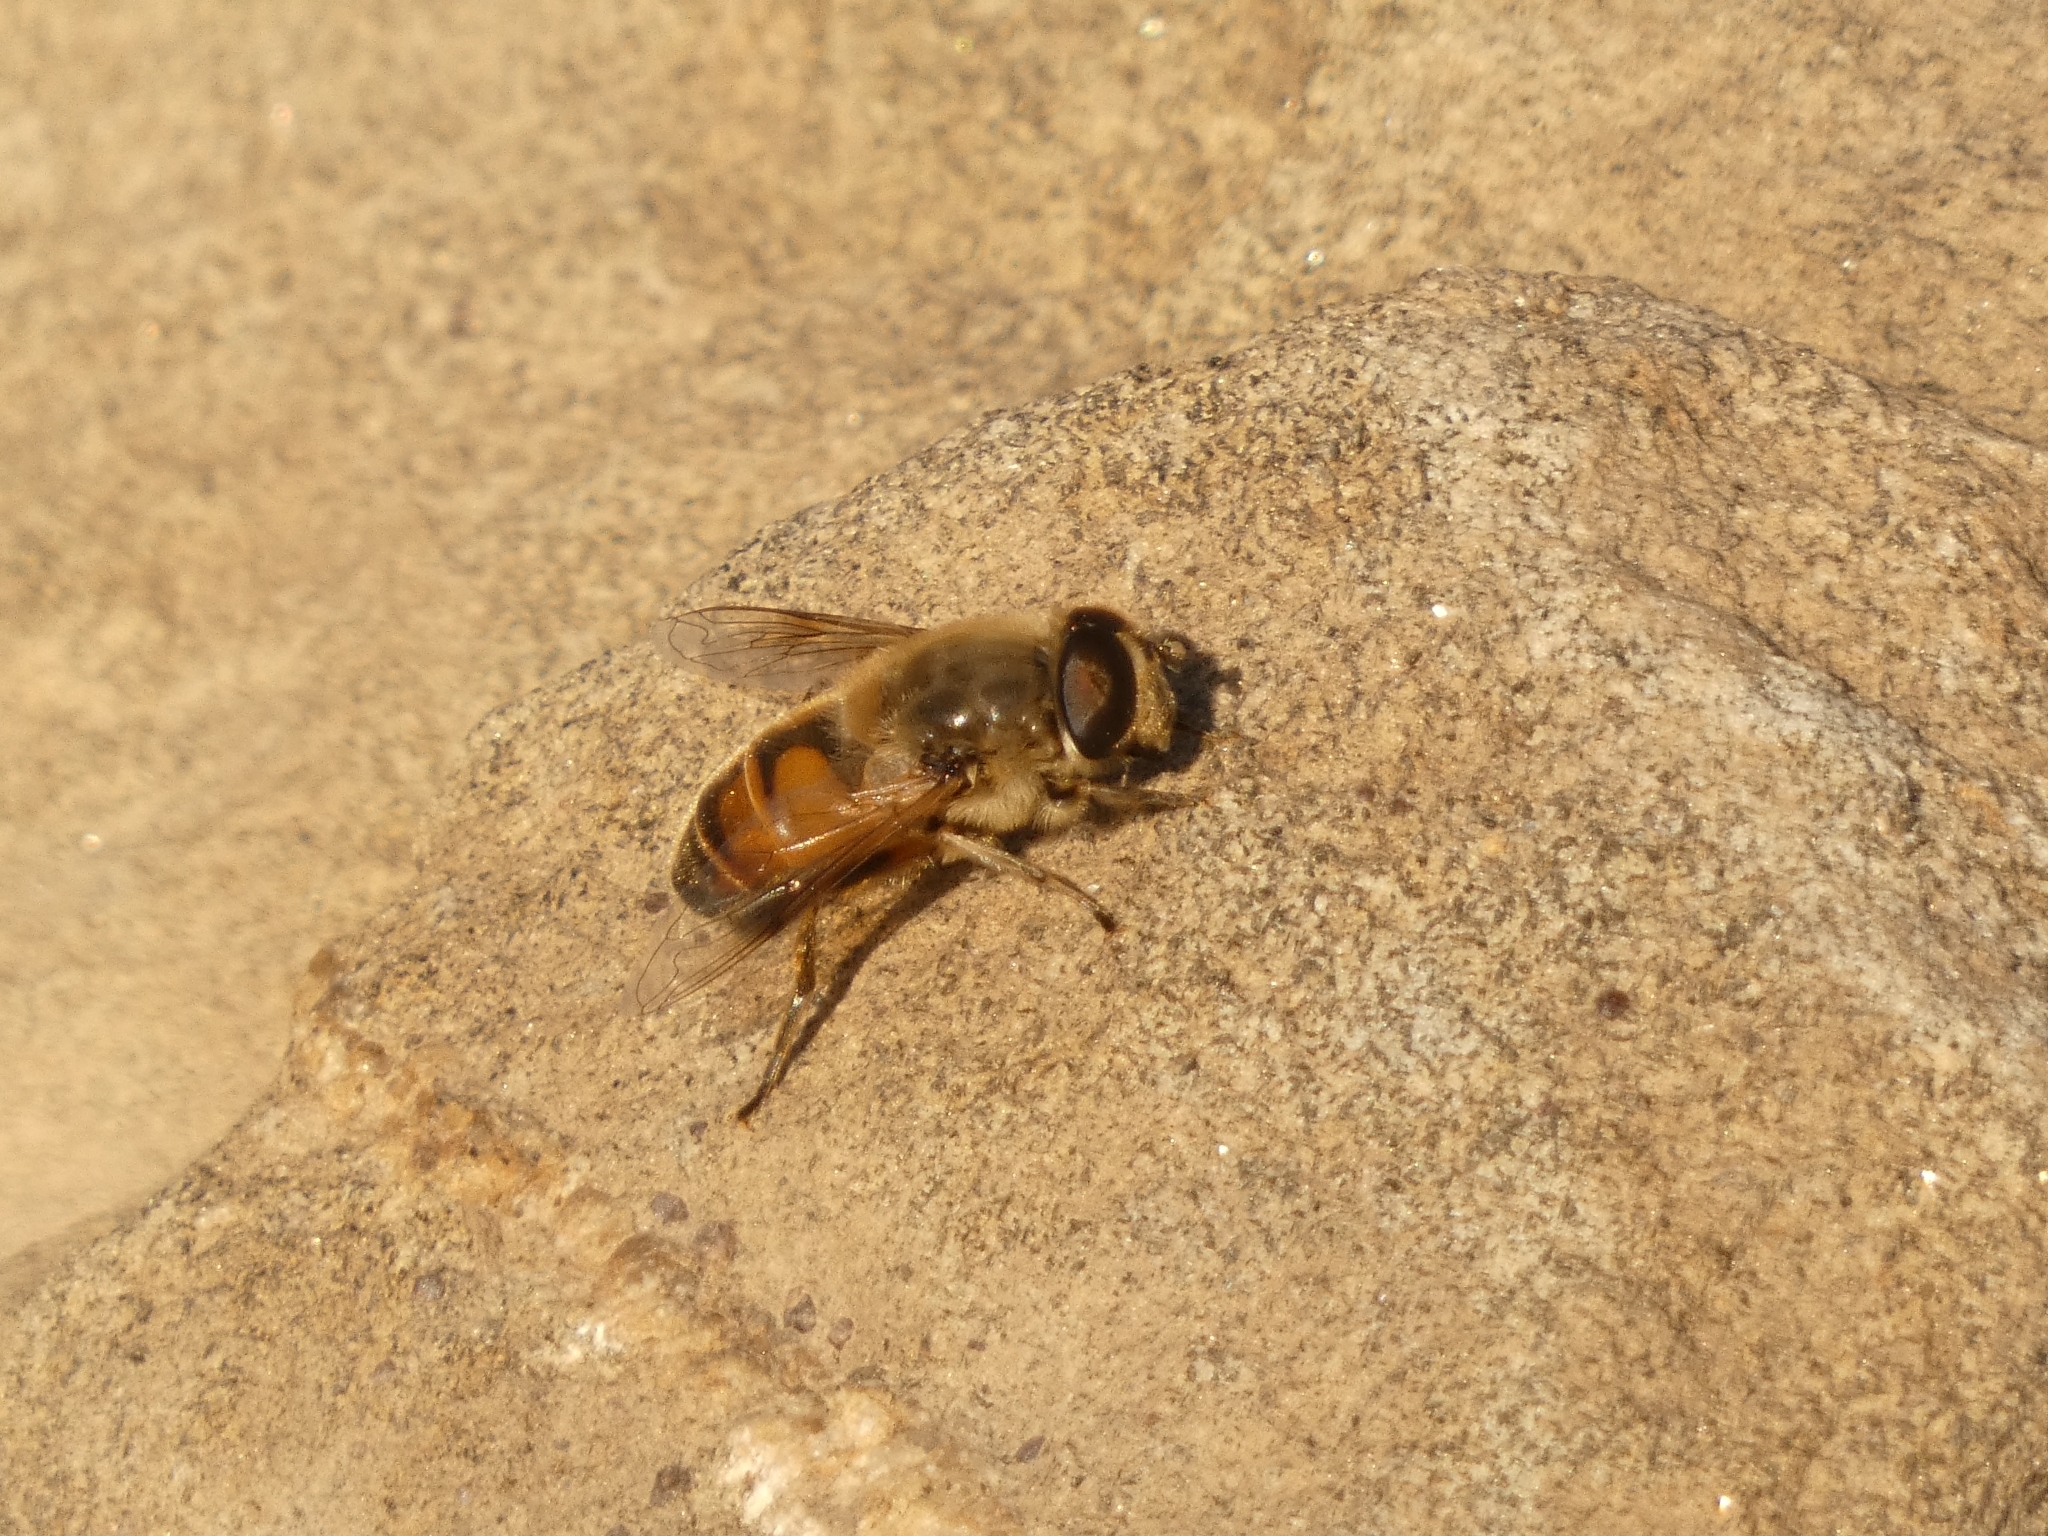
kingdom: Animalia
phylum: Arthropoda
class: Insecta
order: Diptera
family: Syrphidae
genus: Eristalis
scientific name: Eristalis tenax
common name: Drone fly
